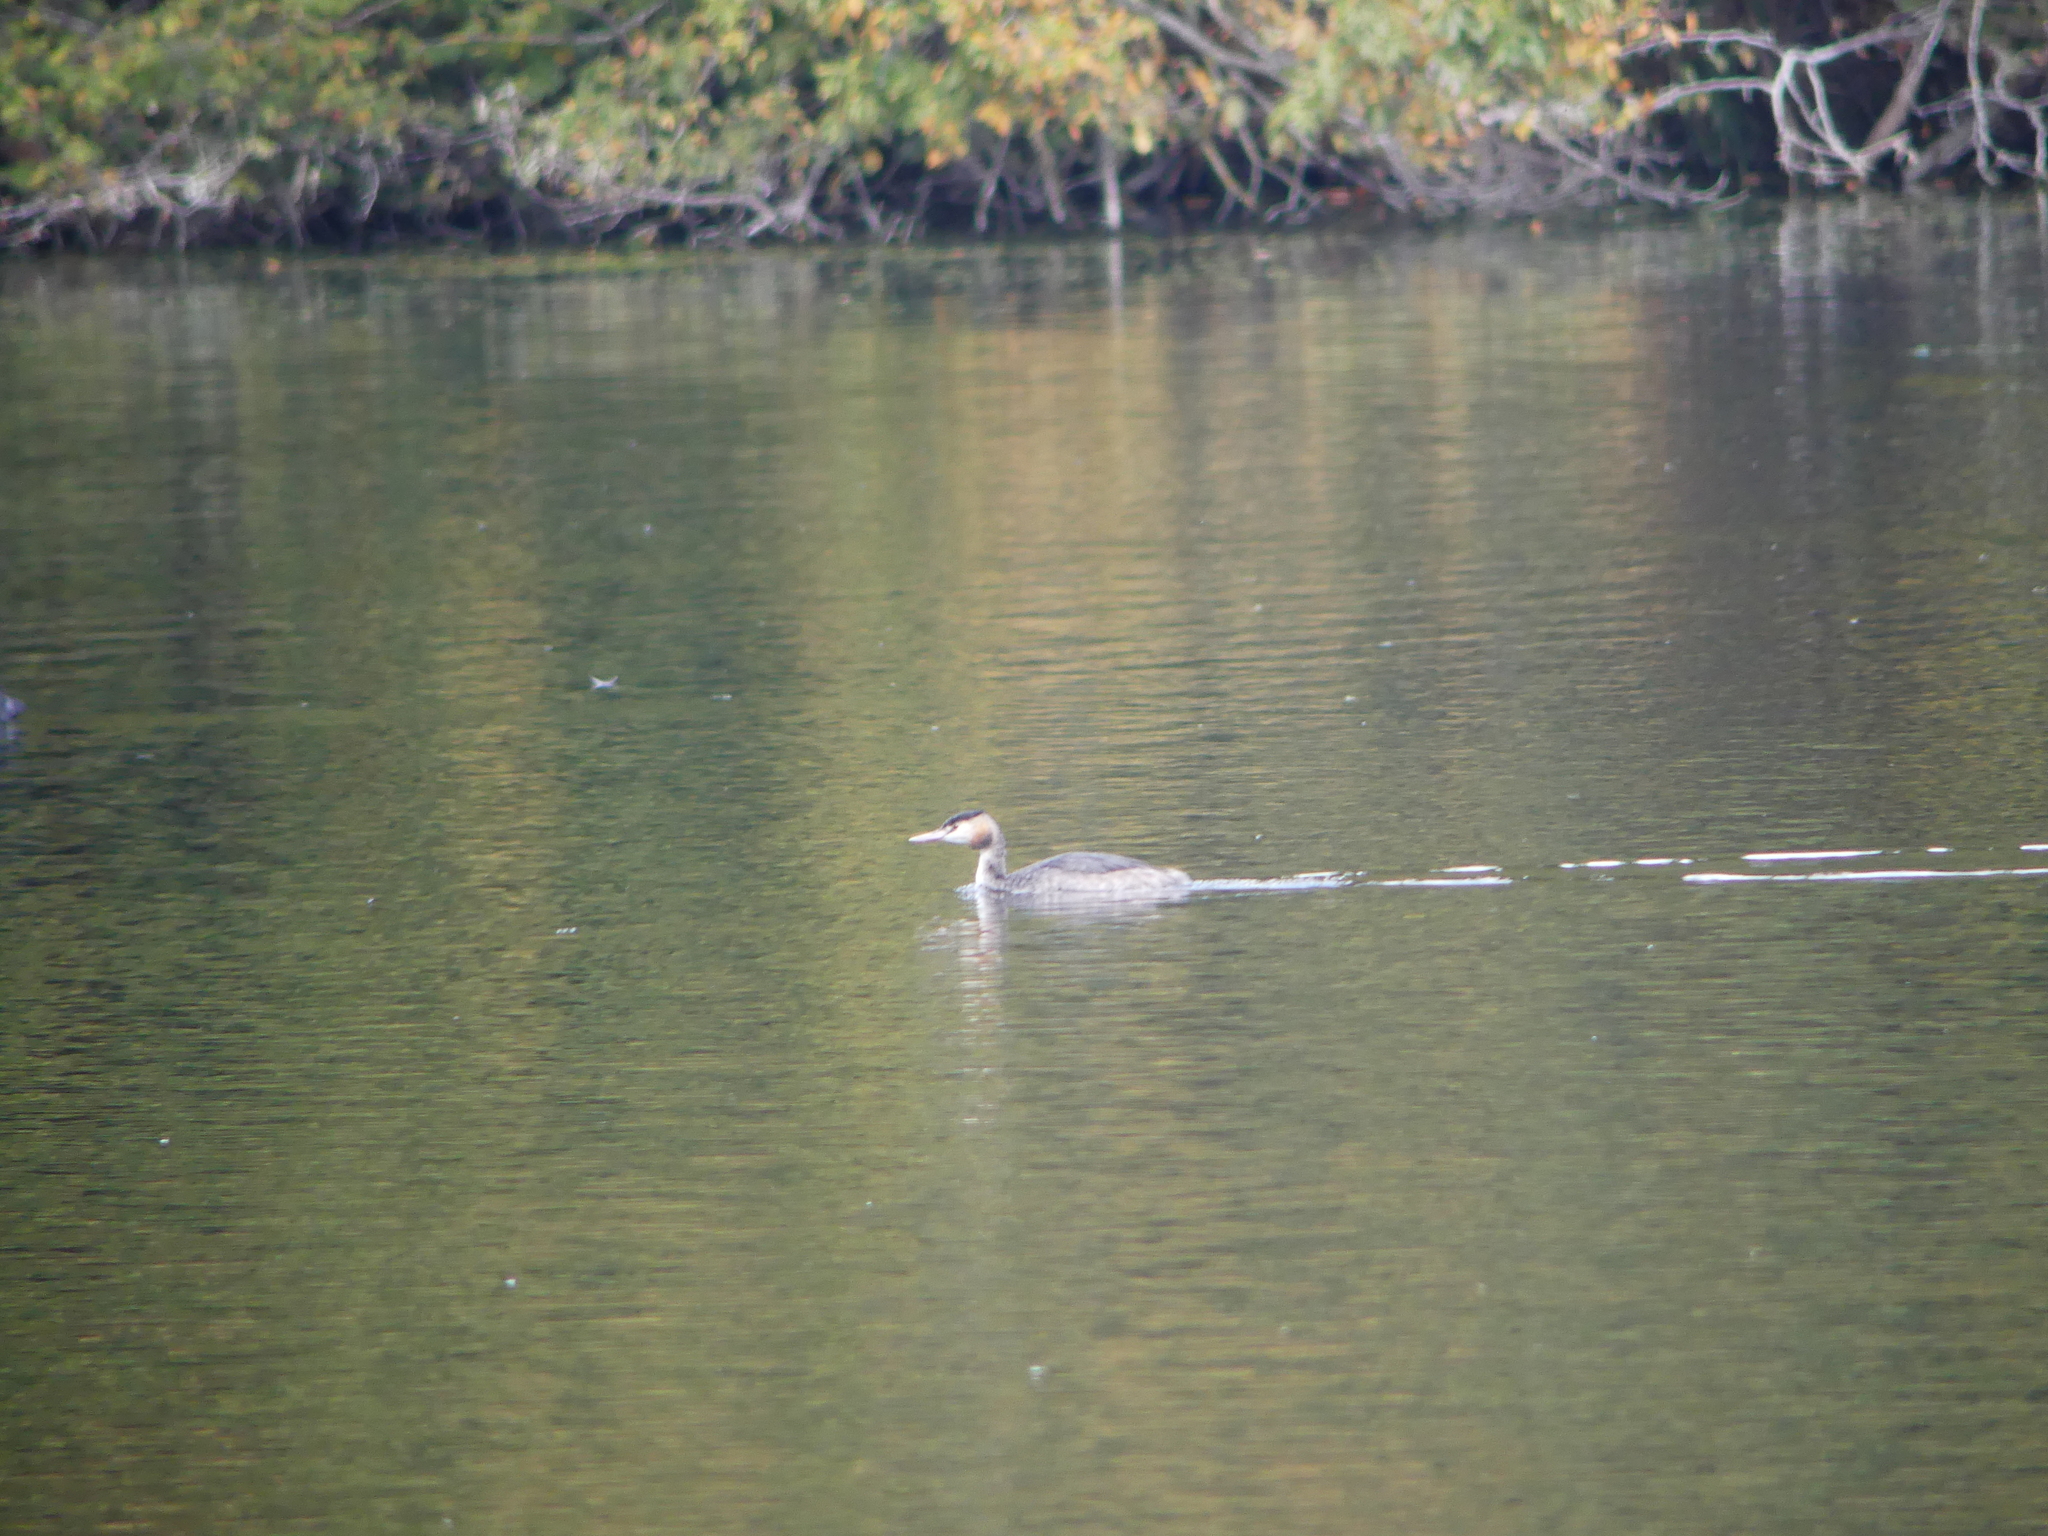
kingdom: Animalia
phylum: Chordata
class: Aves
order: Podicipediformes
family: Podicipedidae
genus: Podiceps
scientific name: Podiceps cristatus
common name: Great crested grebe
